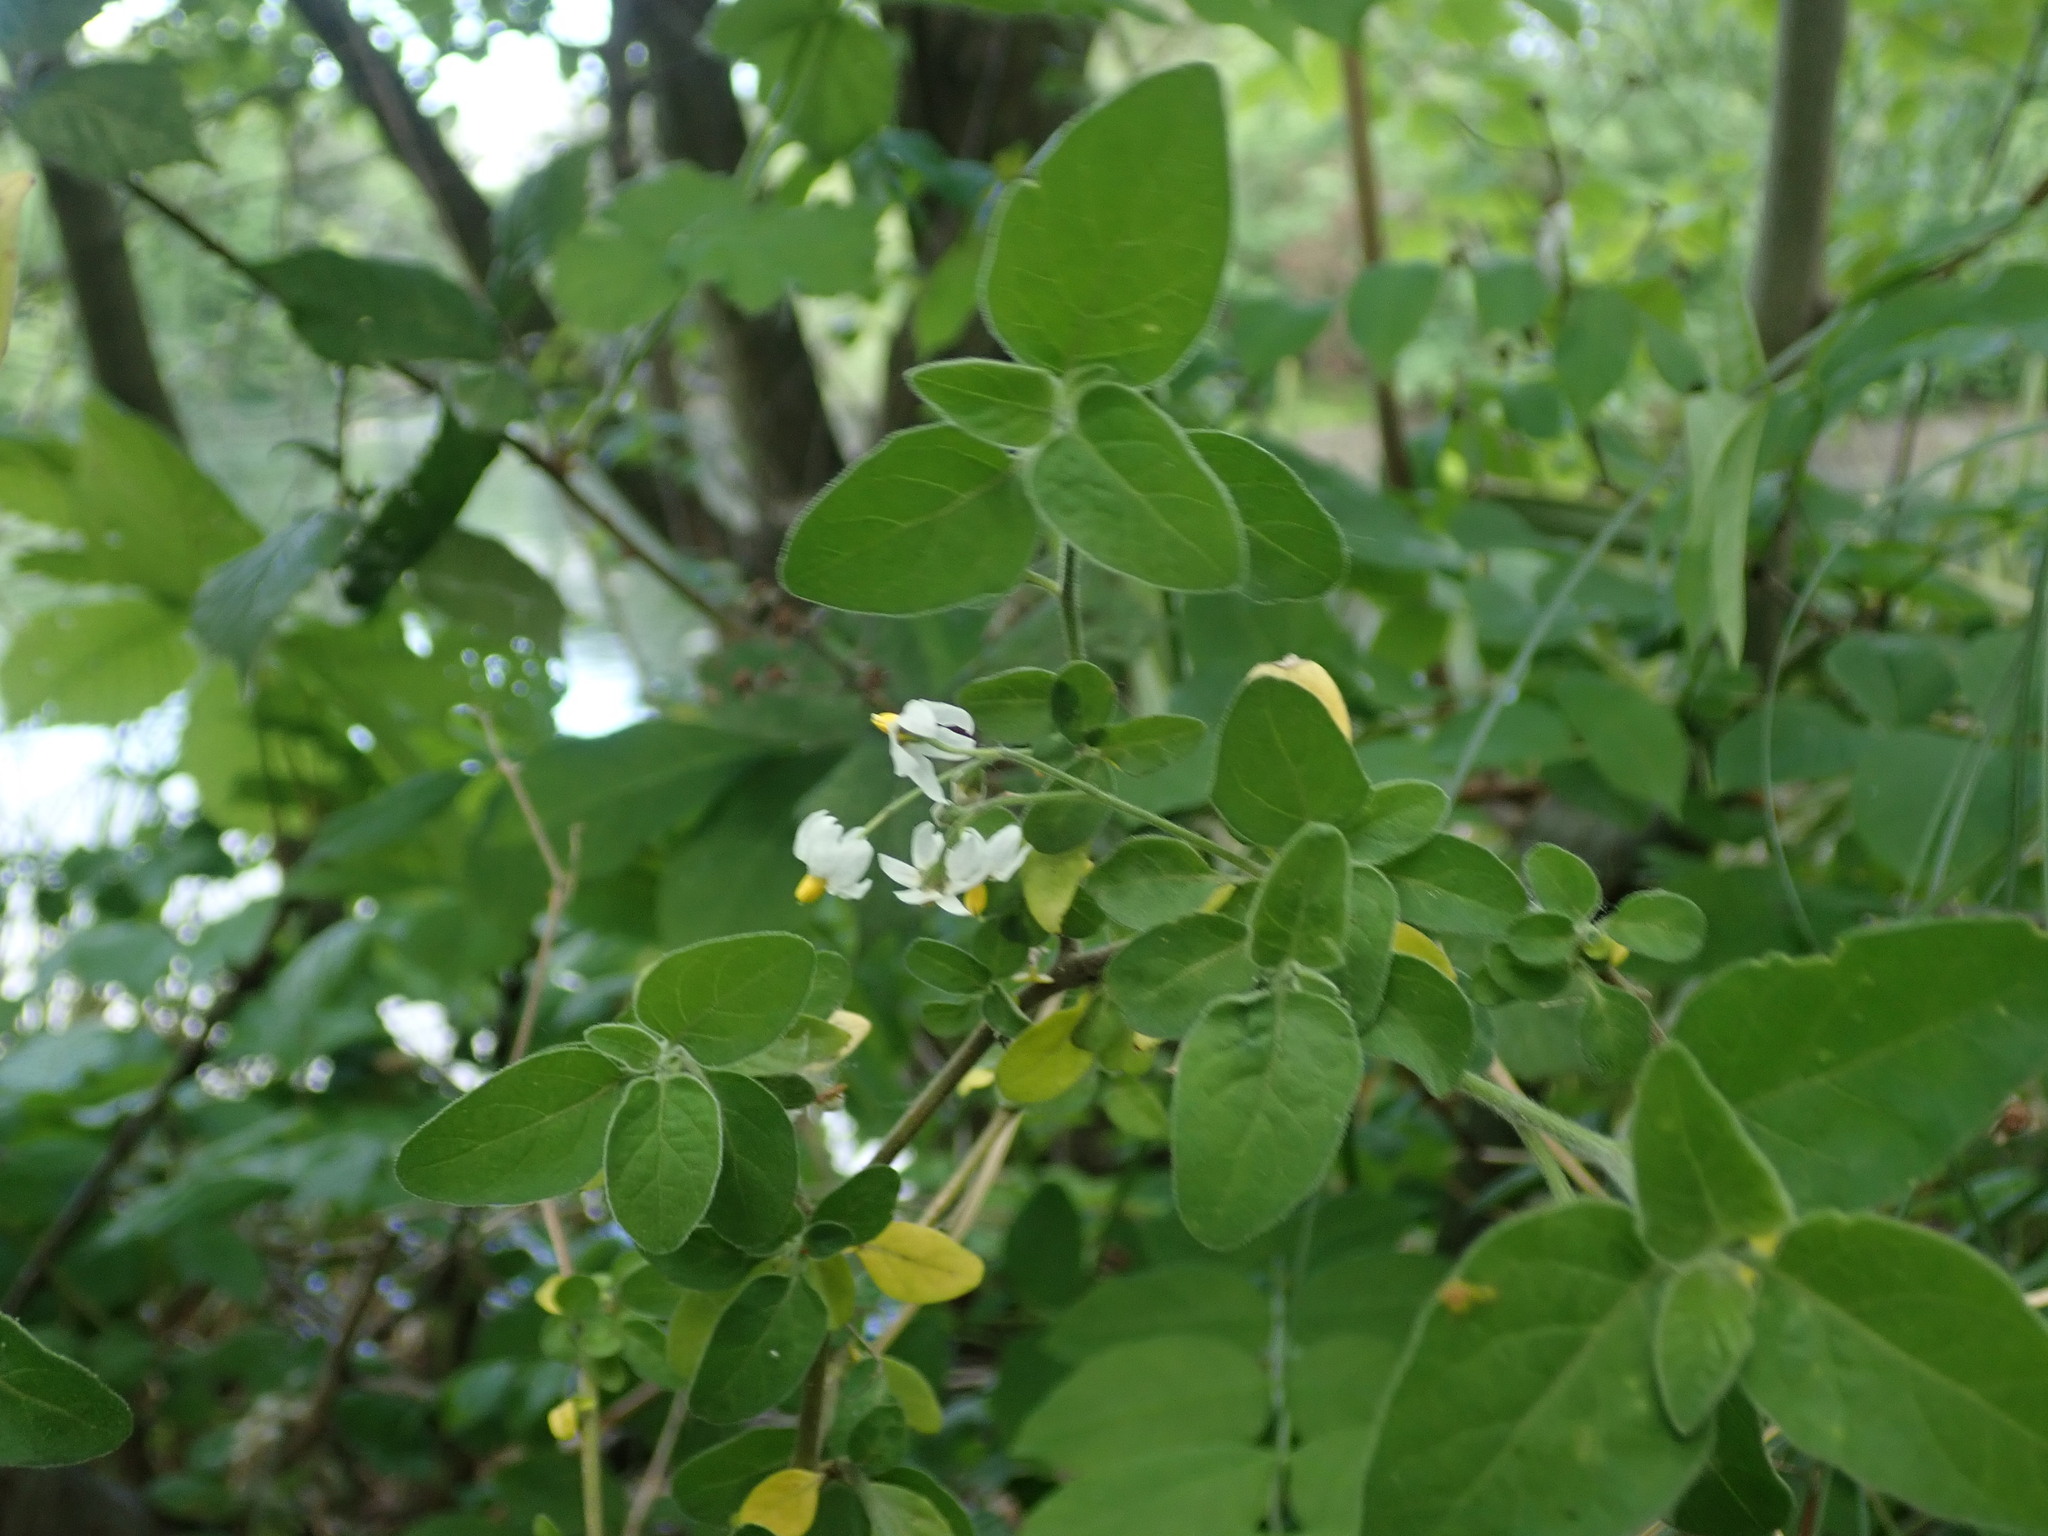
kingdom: Plantae
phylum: Tracheophyta
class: Magnoliopsida
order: Solanales
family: Solanaceae
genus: Solanum
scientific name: Solanum chenopodioides
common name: Tall nightshade
